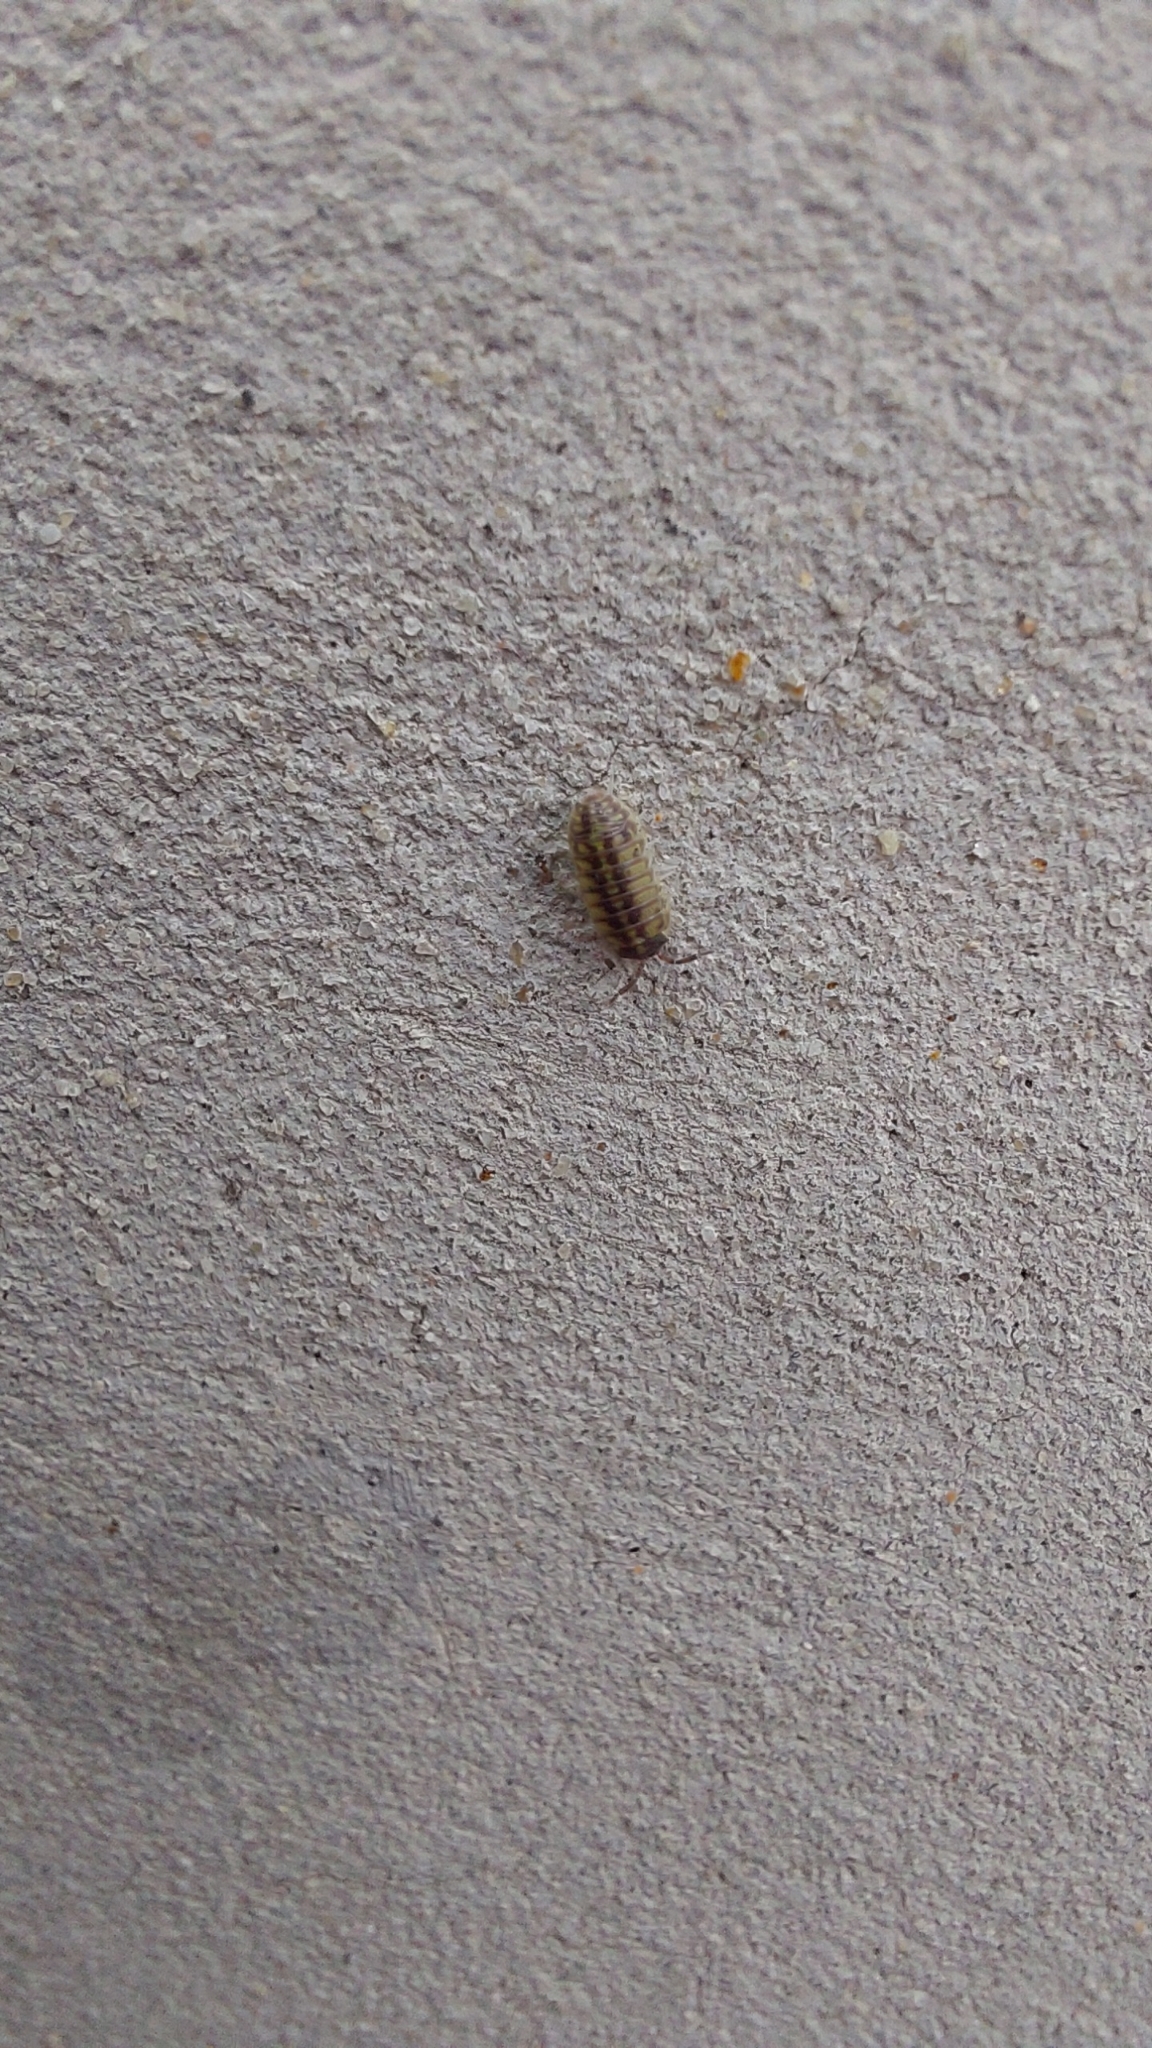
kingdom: Animalia
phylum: Arthropoda
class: Malacostraca
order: Isopoda
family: Armadillidiidae
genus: Armadillidium
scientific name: Armadillidium versicolor
